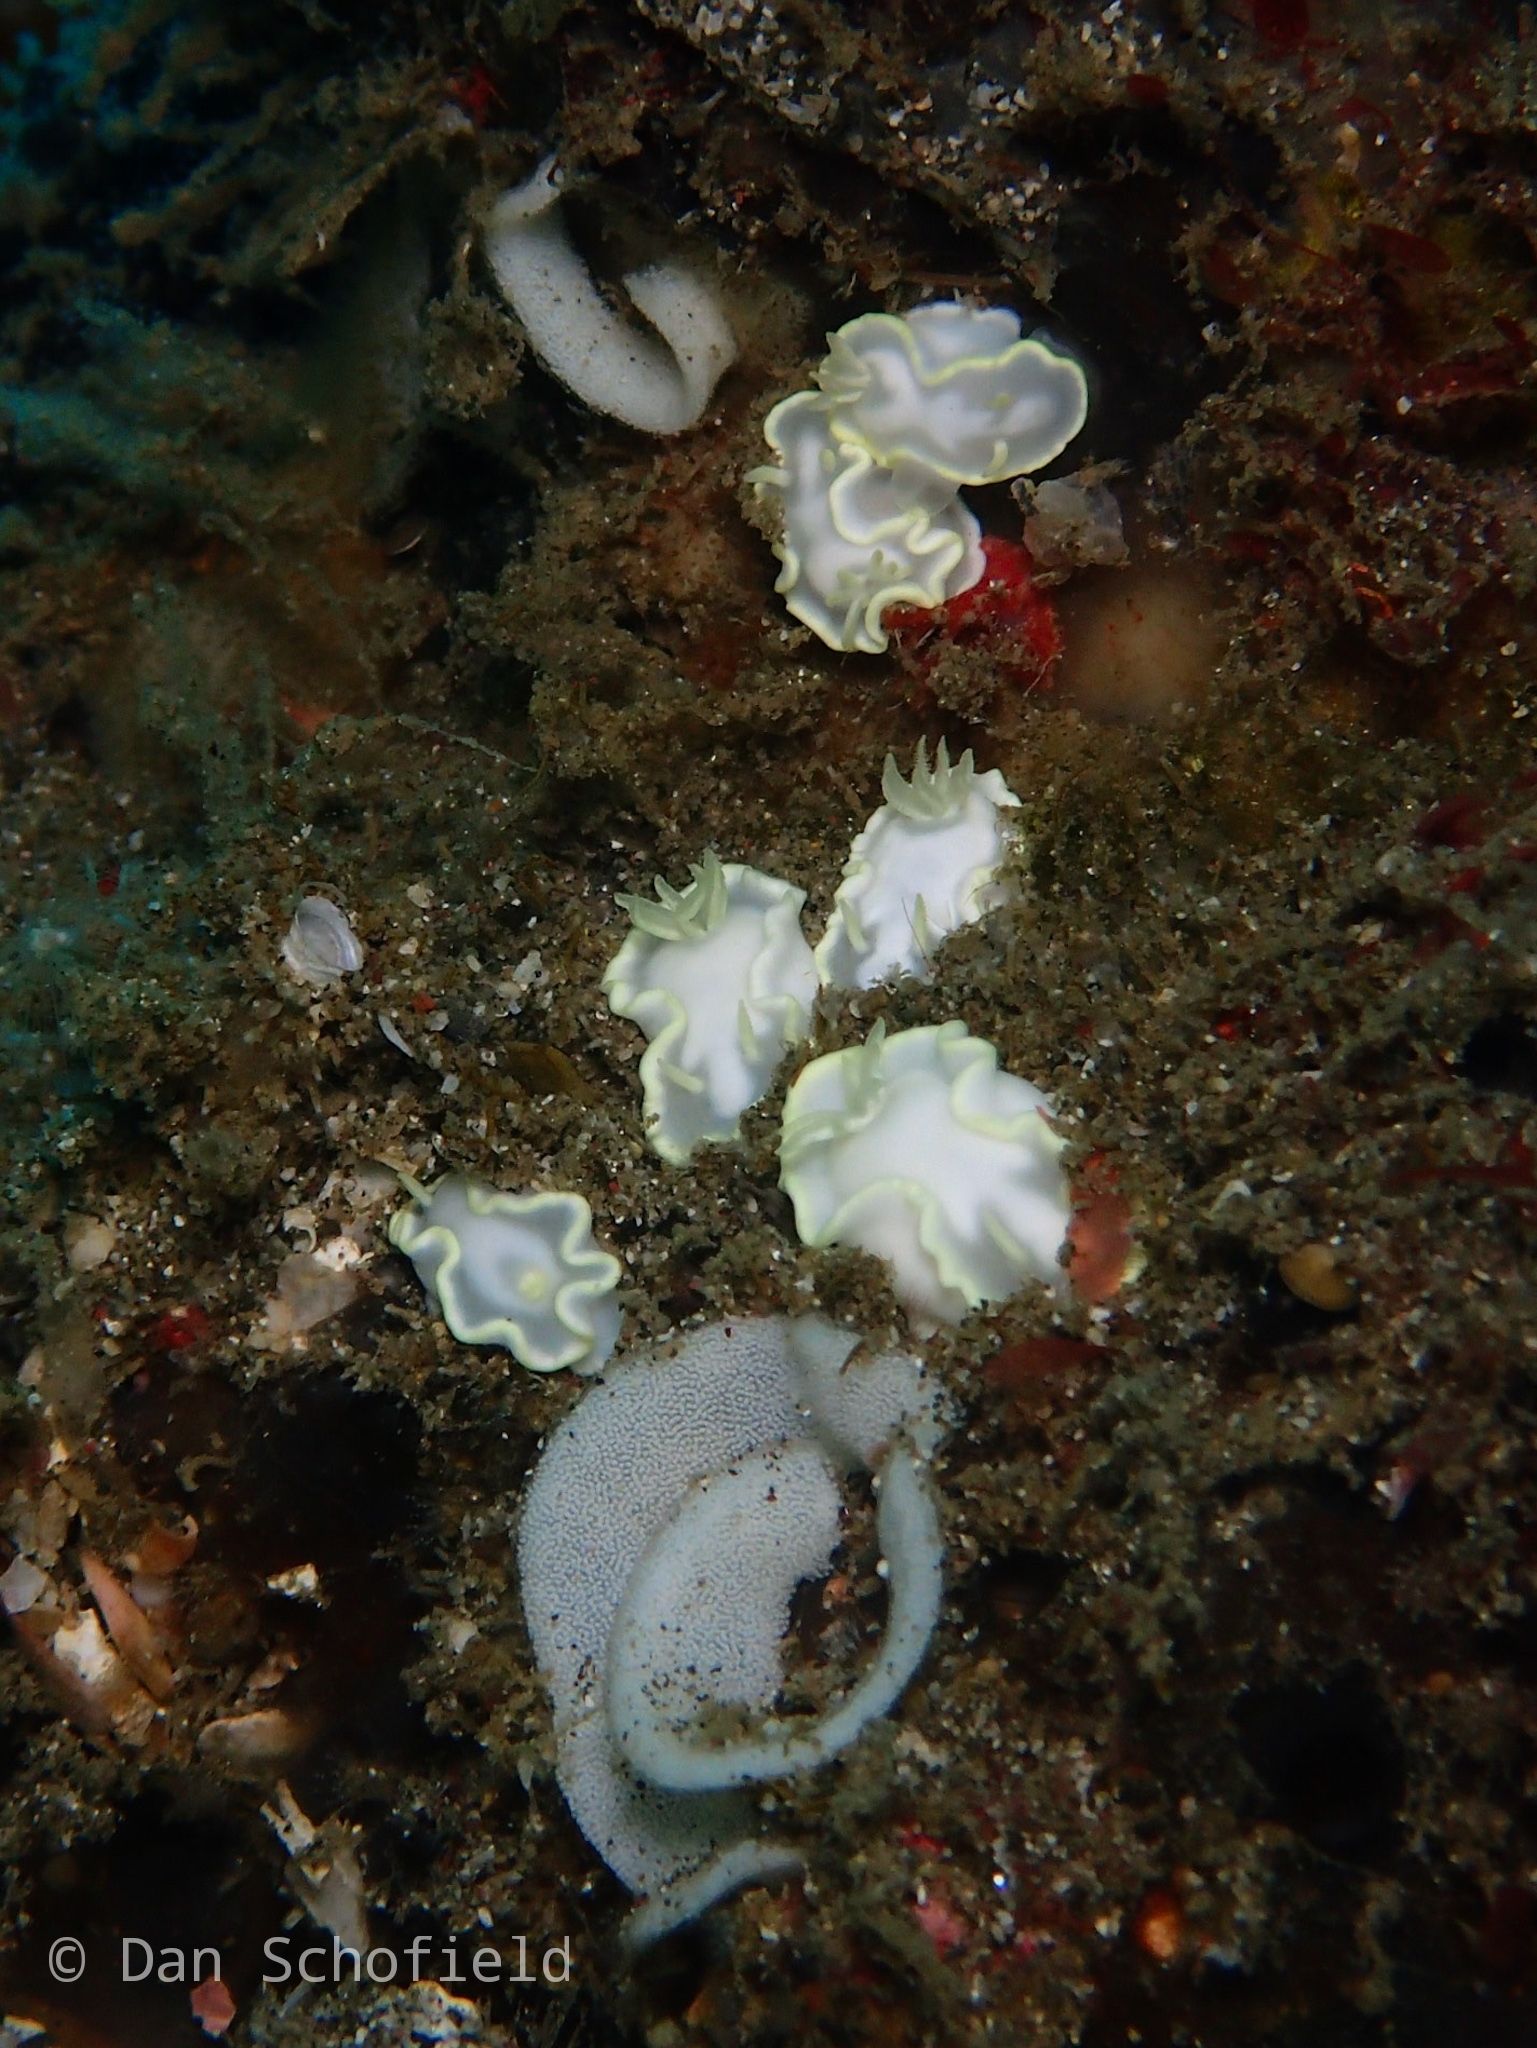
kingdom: Animalia
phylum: Mollusca
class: Gastropoda
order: Nudibranchia
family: Chromodorididae
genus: Glossodoris
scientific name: Glossodoris buko
